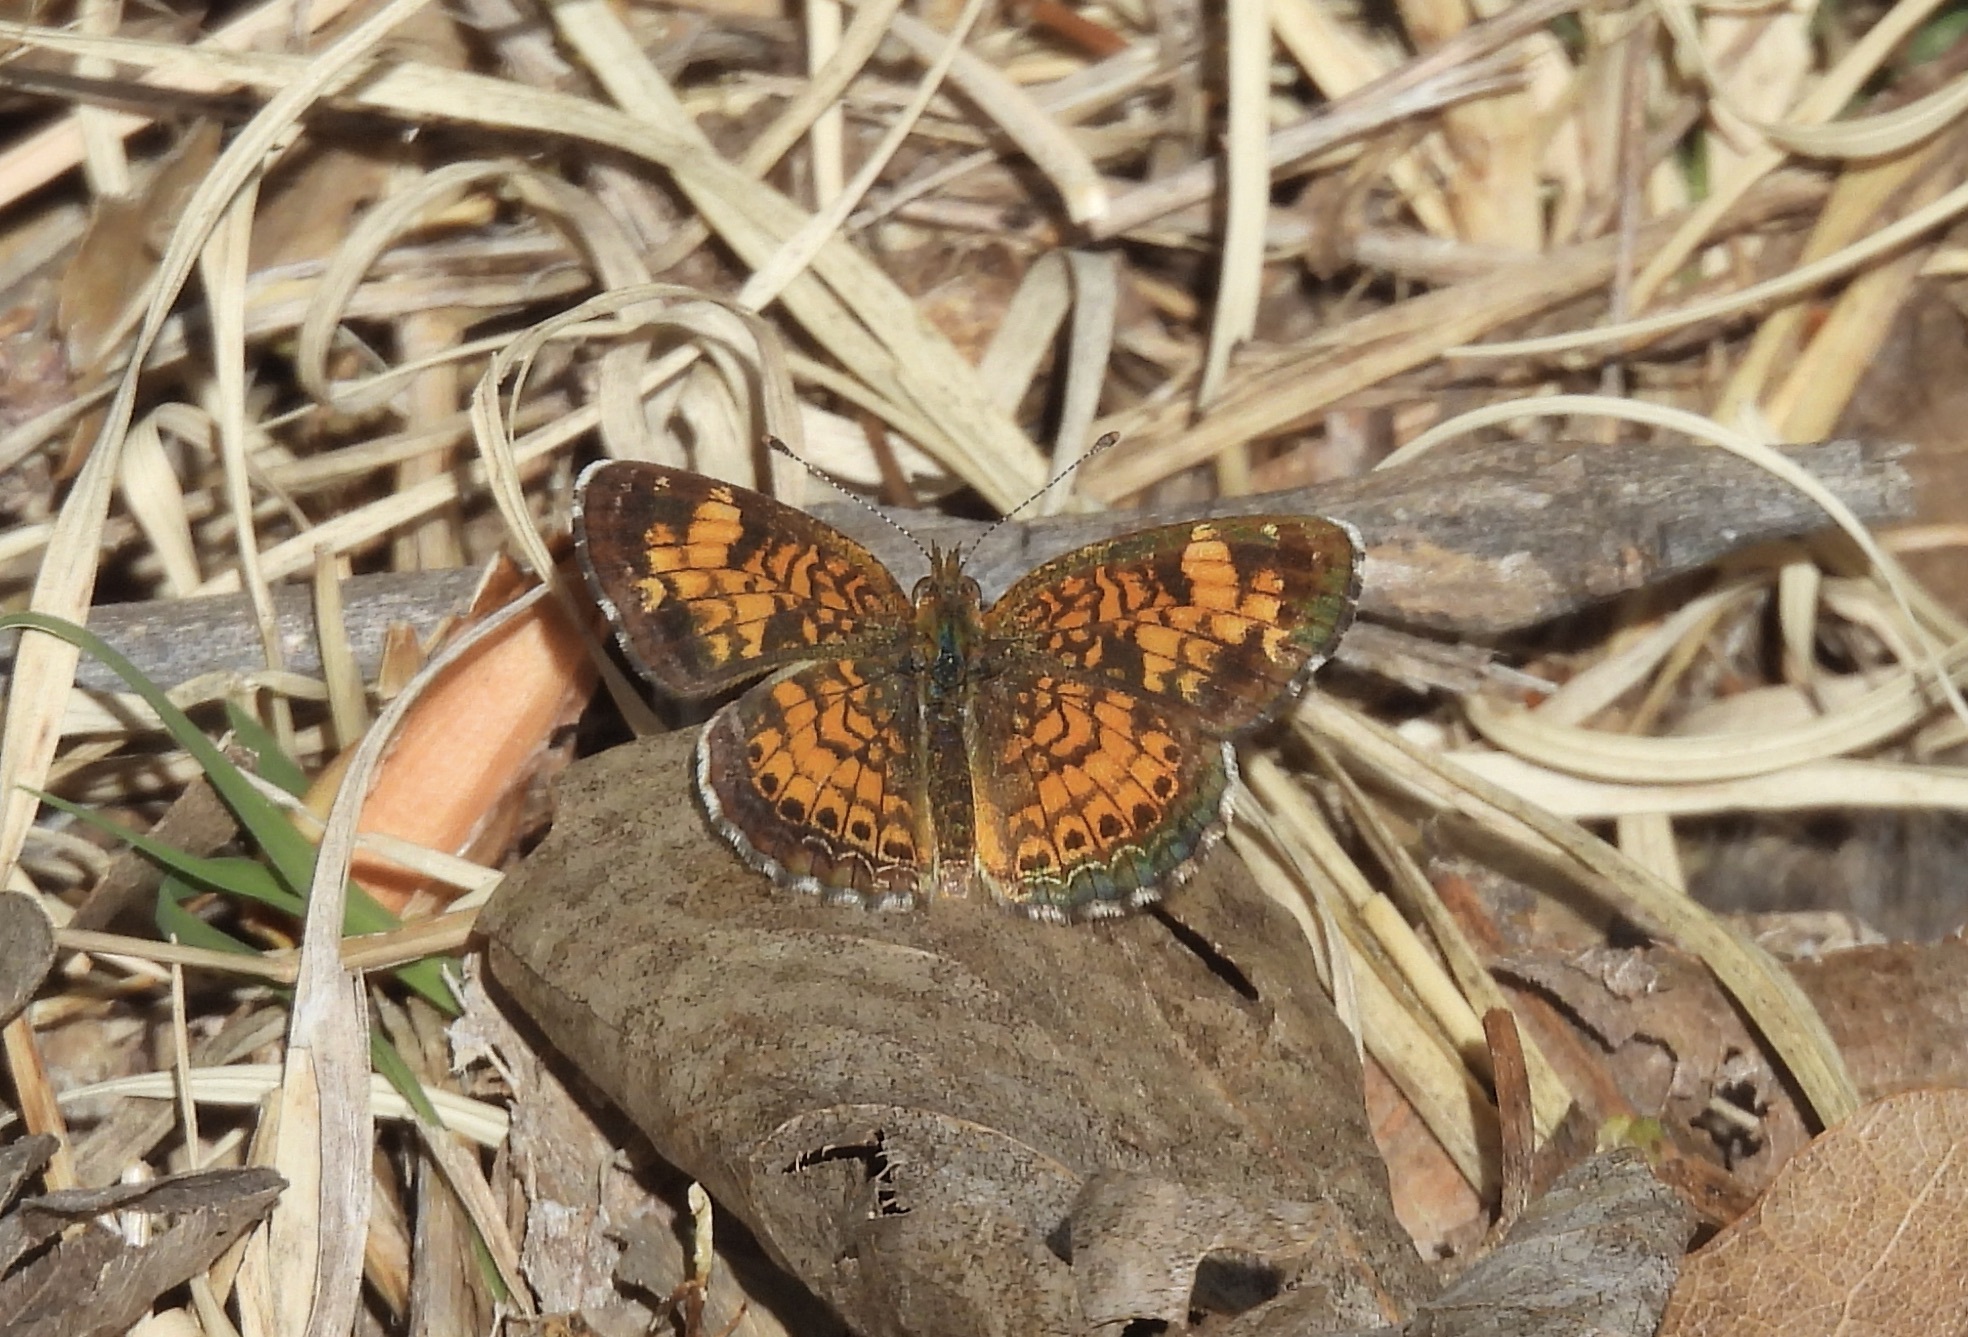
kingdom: Animalia
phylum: Arthropoda
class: Insecta
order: Lepidoptera
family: Nymphalidae
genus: Phyciodes
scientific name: Phyciodes tharos
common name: Pearl crescent
